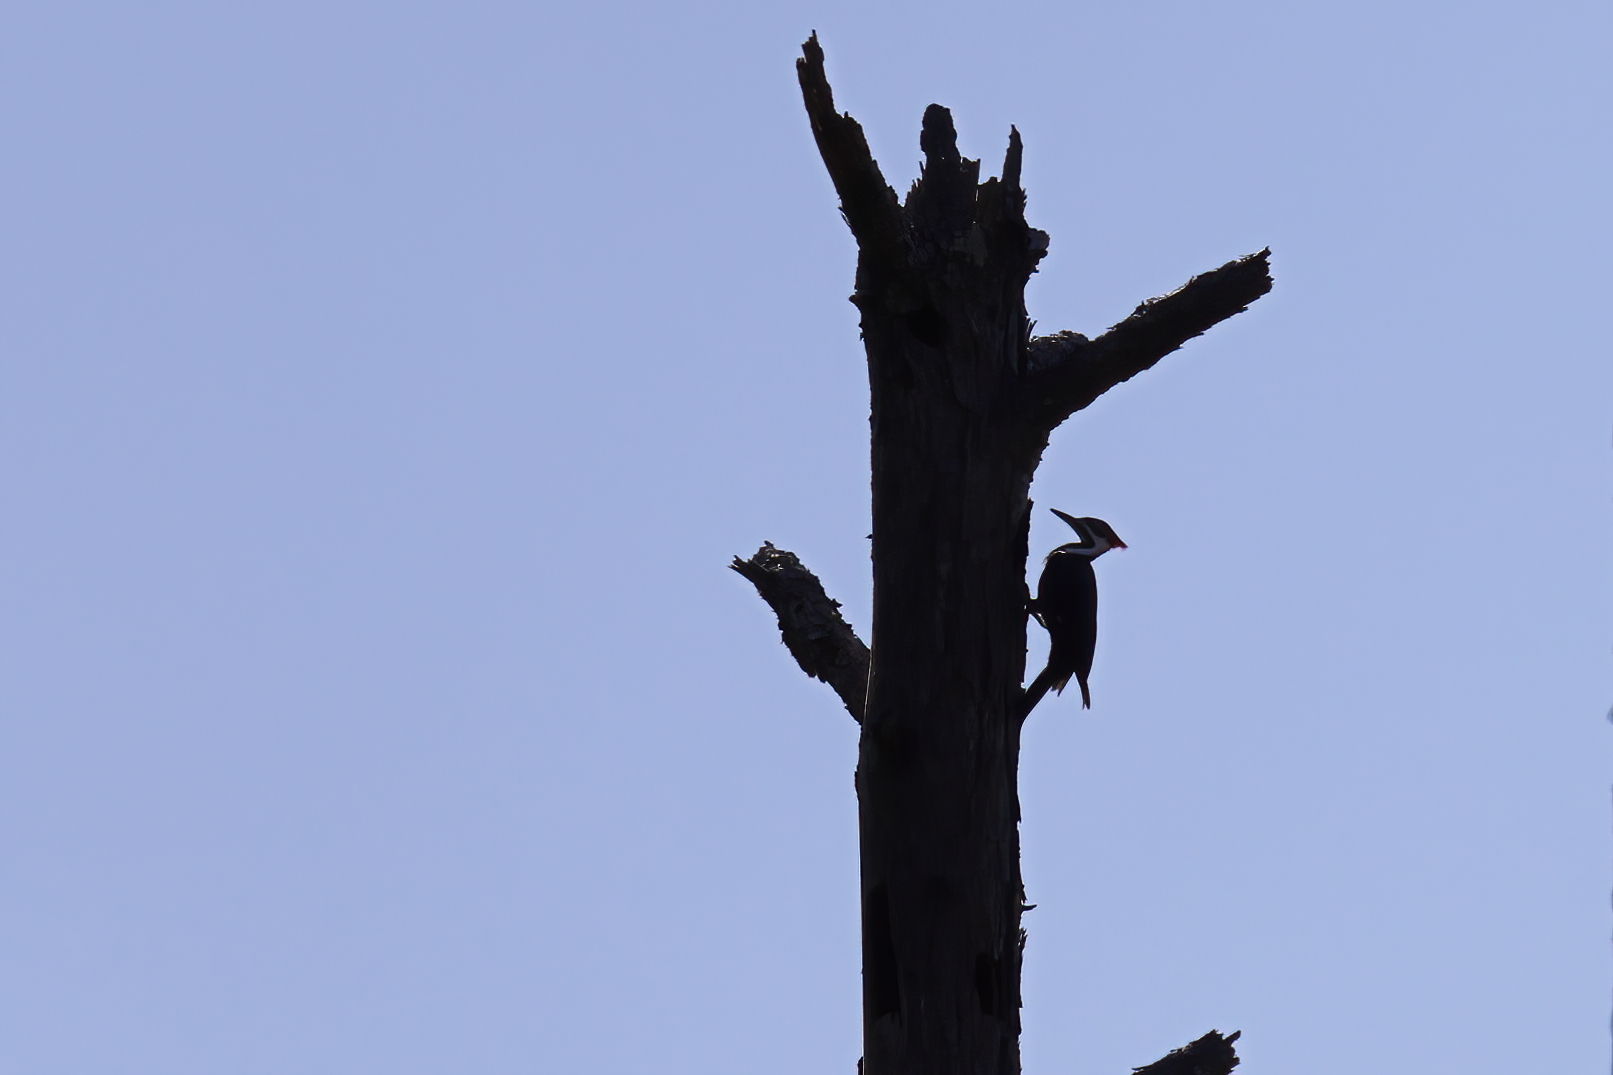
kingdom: Animalia
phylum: Chordata
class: Aves
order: Piciformes
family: Picidae
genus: Dryocopus
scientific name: Dryocopus pileatus
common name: Pileated woodpecker
